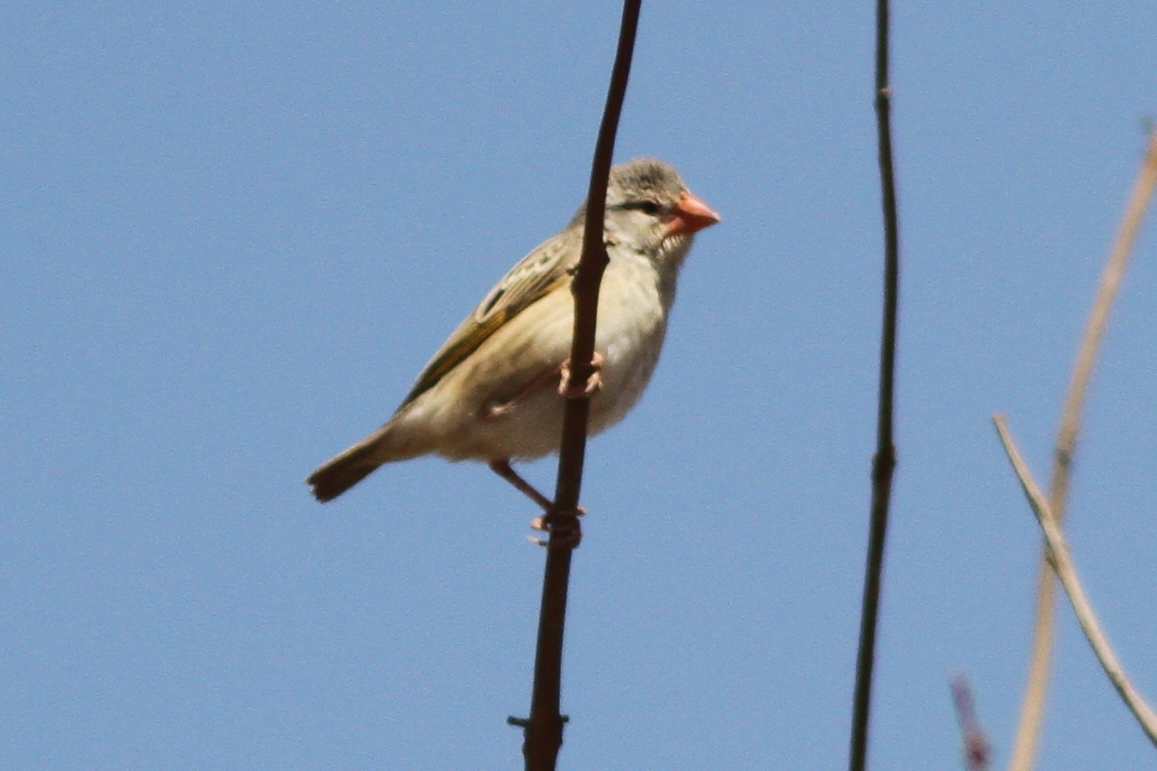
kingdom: Animalia
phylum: Chordata
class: Aves
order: Passeriformes
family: Ploceidae
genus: Quelea
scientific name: Quelea quelea
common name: Red-billed quelea
